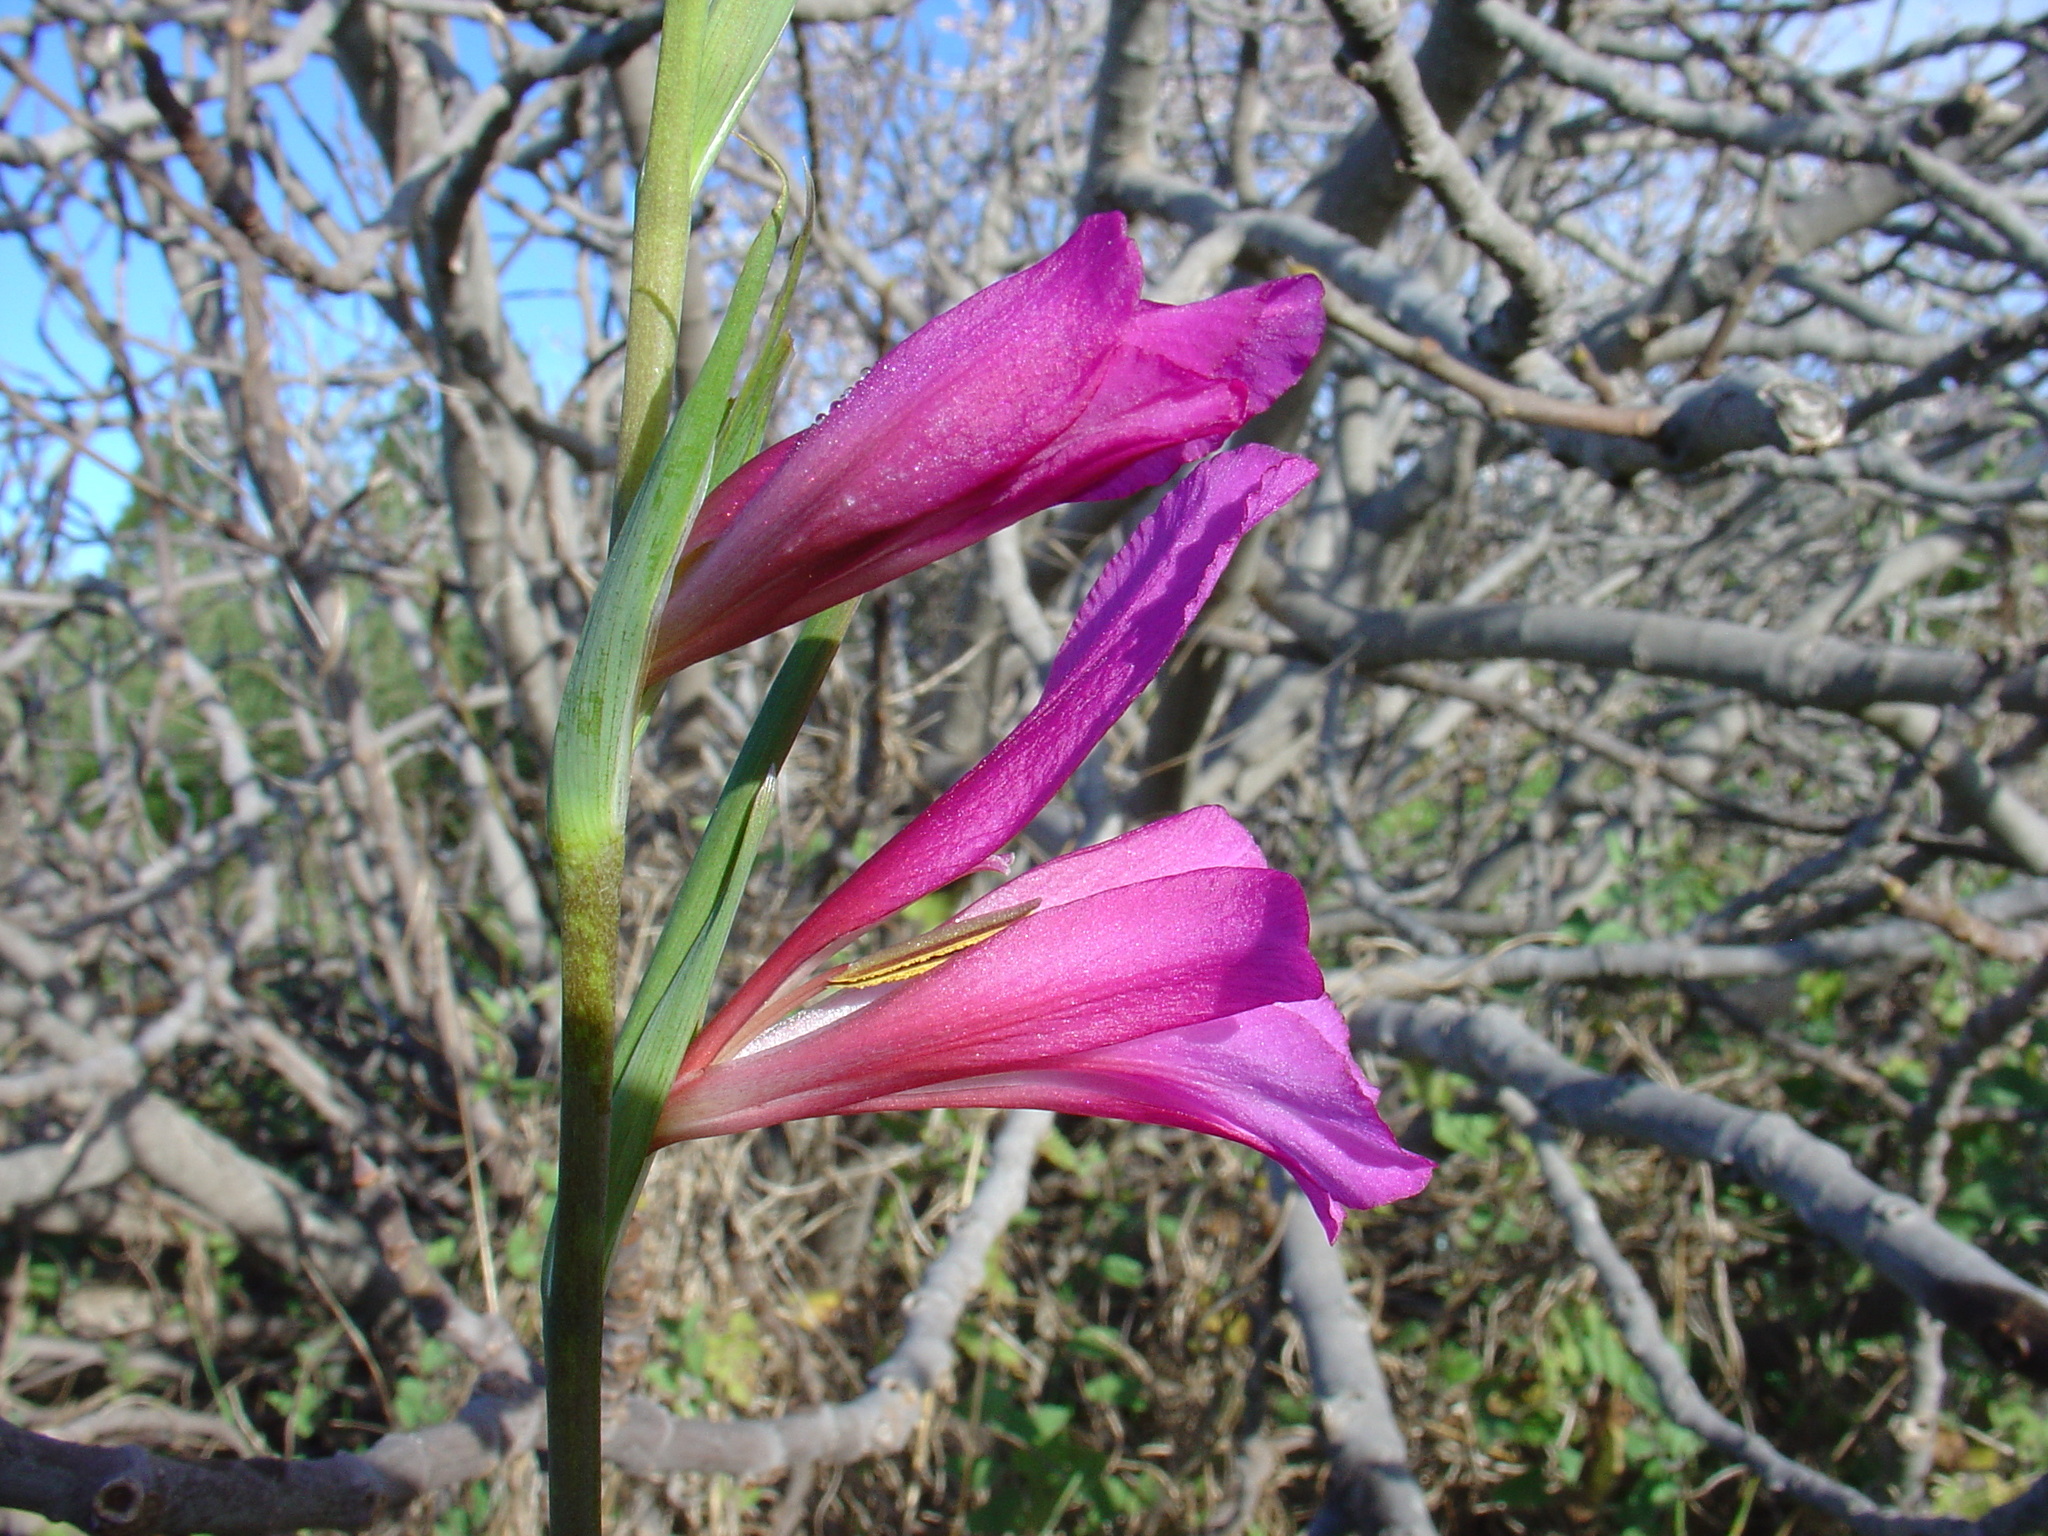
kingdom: Plantae
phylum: Tracheophyta
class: Liliopsida
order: Asparagales
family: Iridaceae
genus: Gladiolus
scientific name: Gladiolus italicus
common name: Field gladiolus
